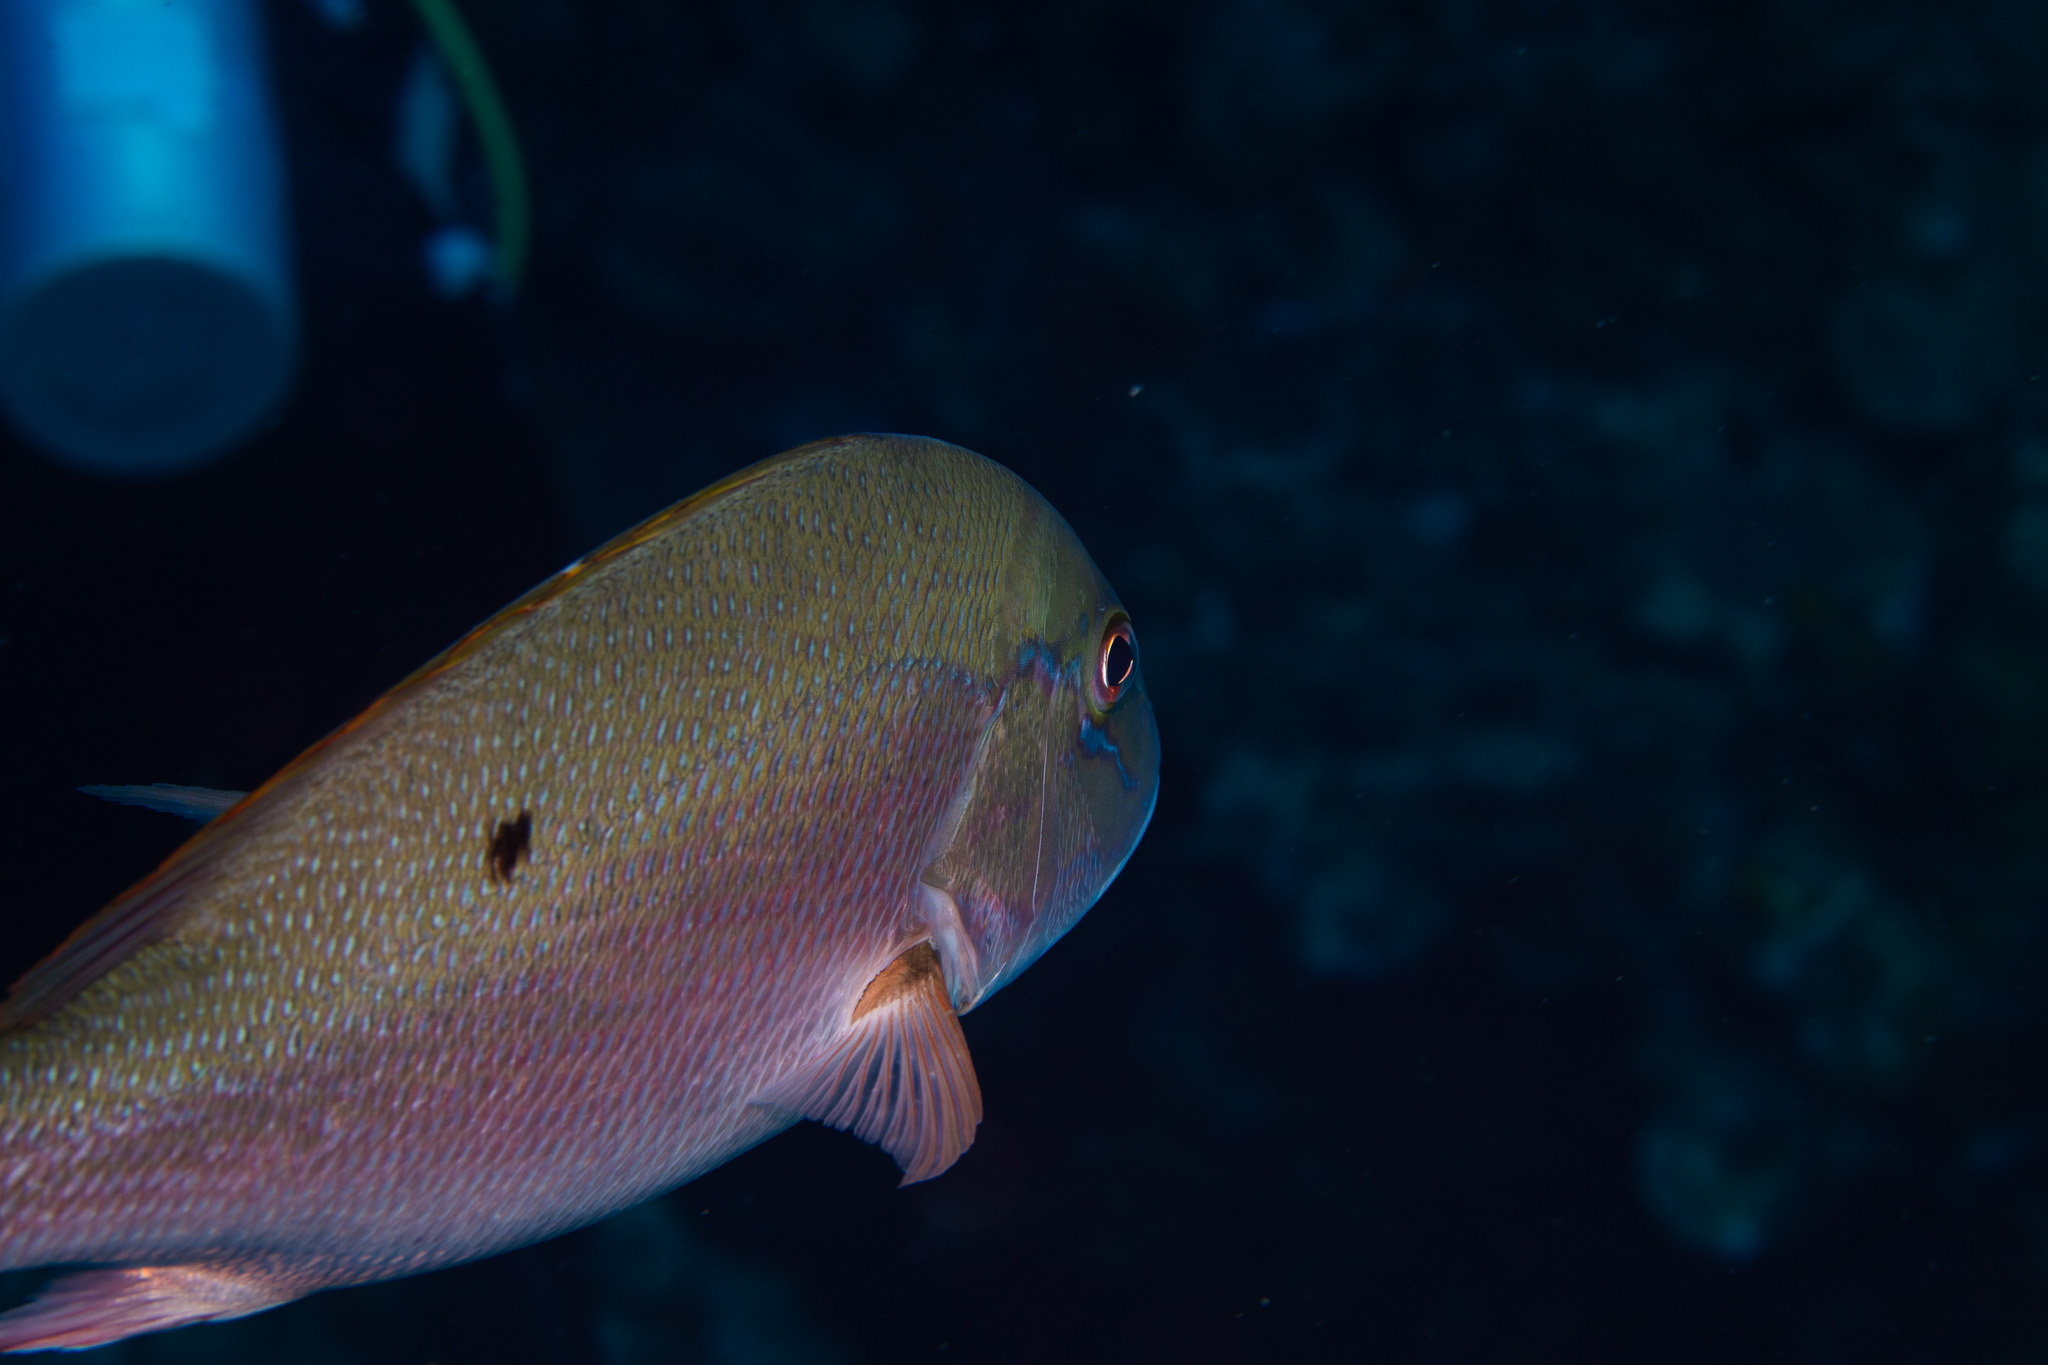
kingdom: Animalia
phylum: Chordata
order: Perciformes
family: Lutjanidae
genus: Lutjanus
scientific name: Lutjanus analis
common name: Mutton snapper
